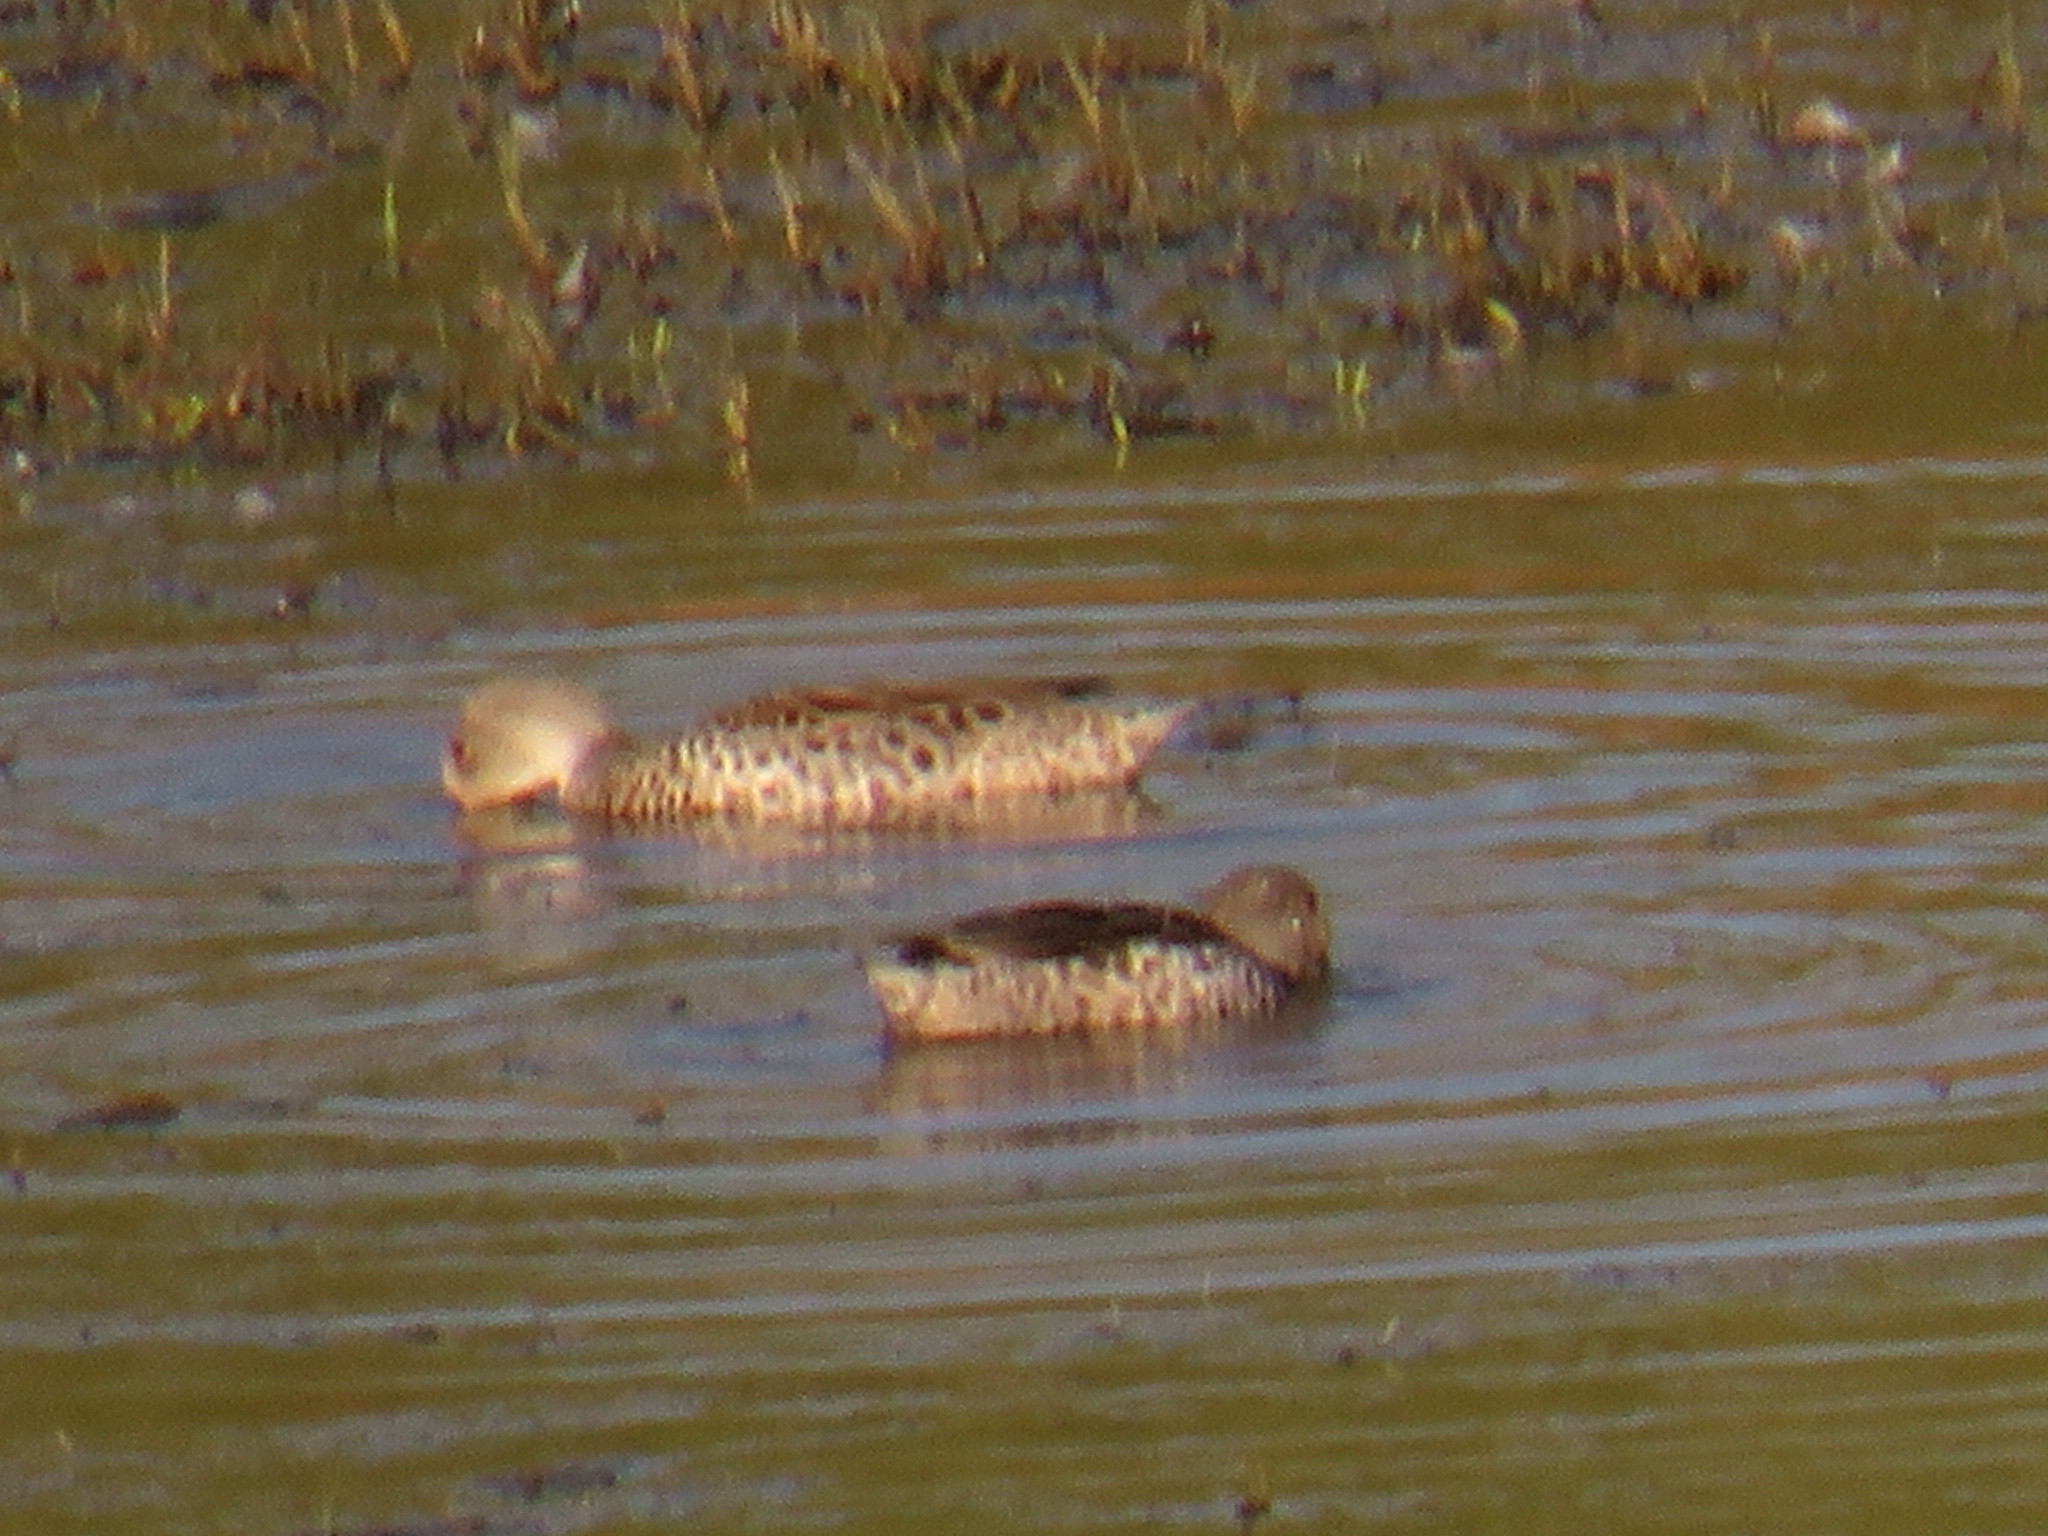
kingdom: Animalia
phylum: Chordata
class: Aves
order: Anseriformes
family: Anatidae
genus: Anas
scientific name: Anas capensis
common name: Cape teal
